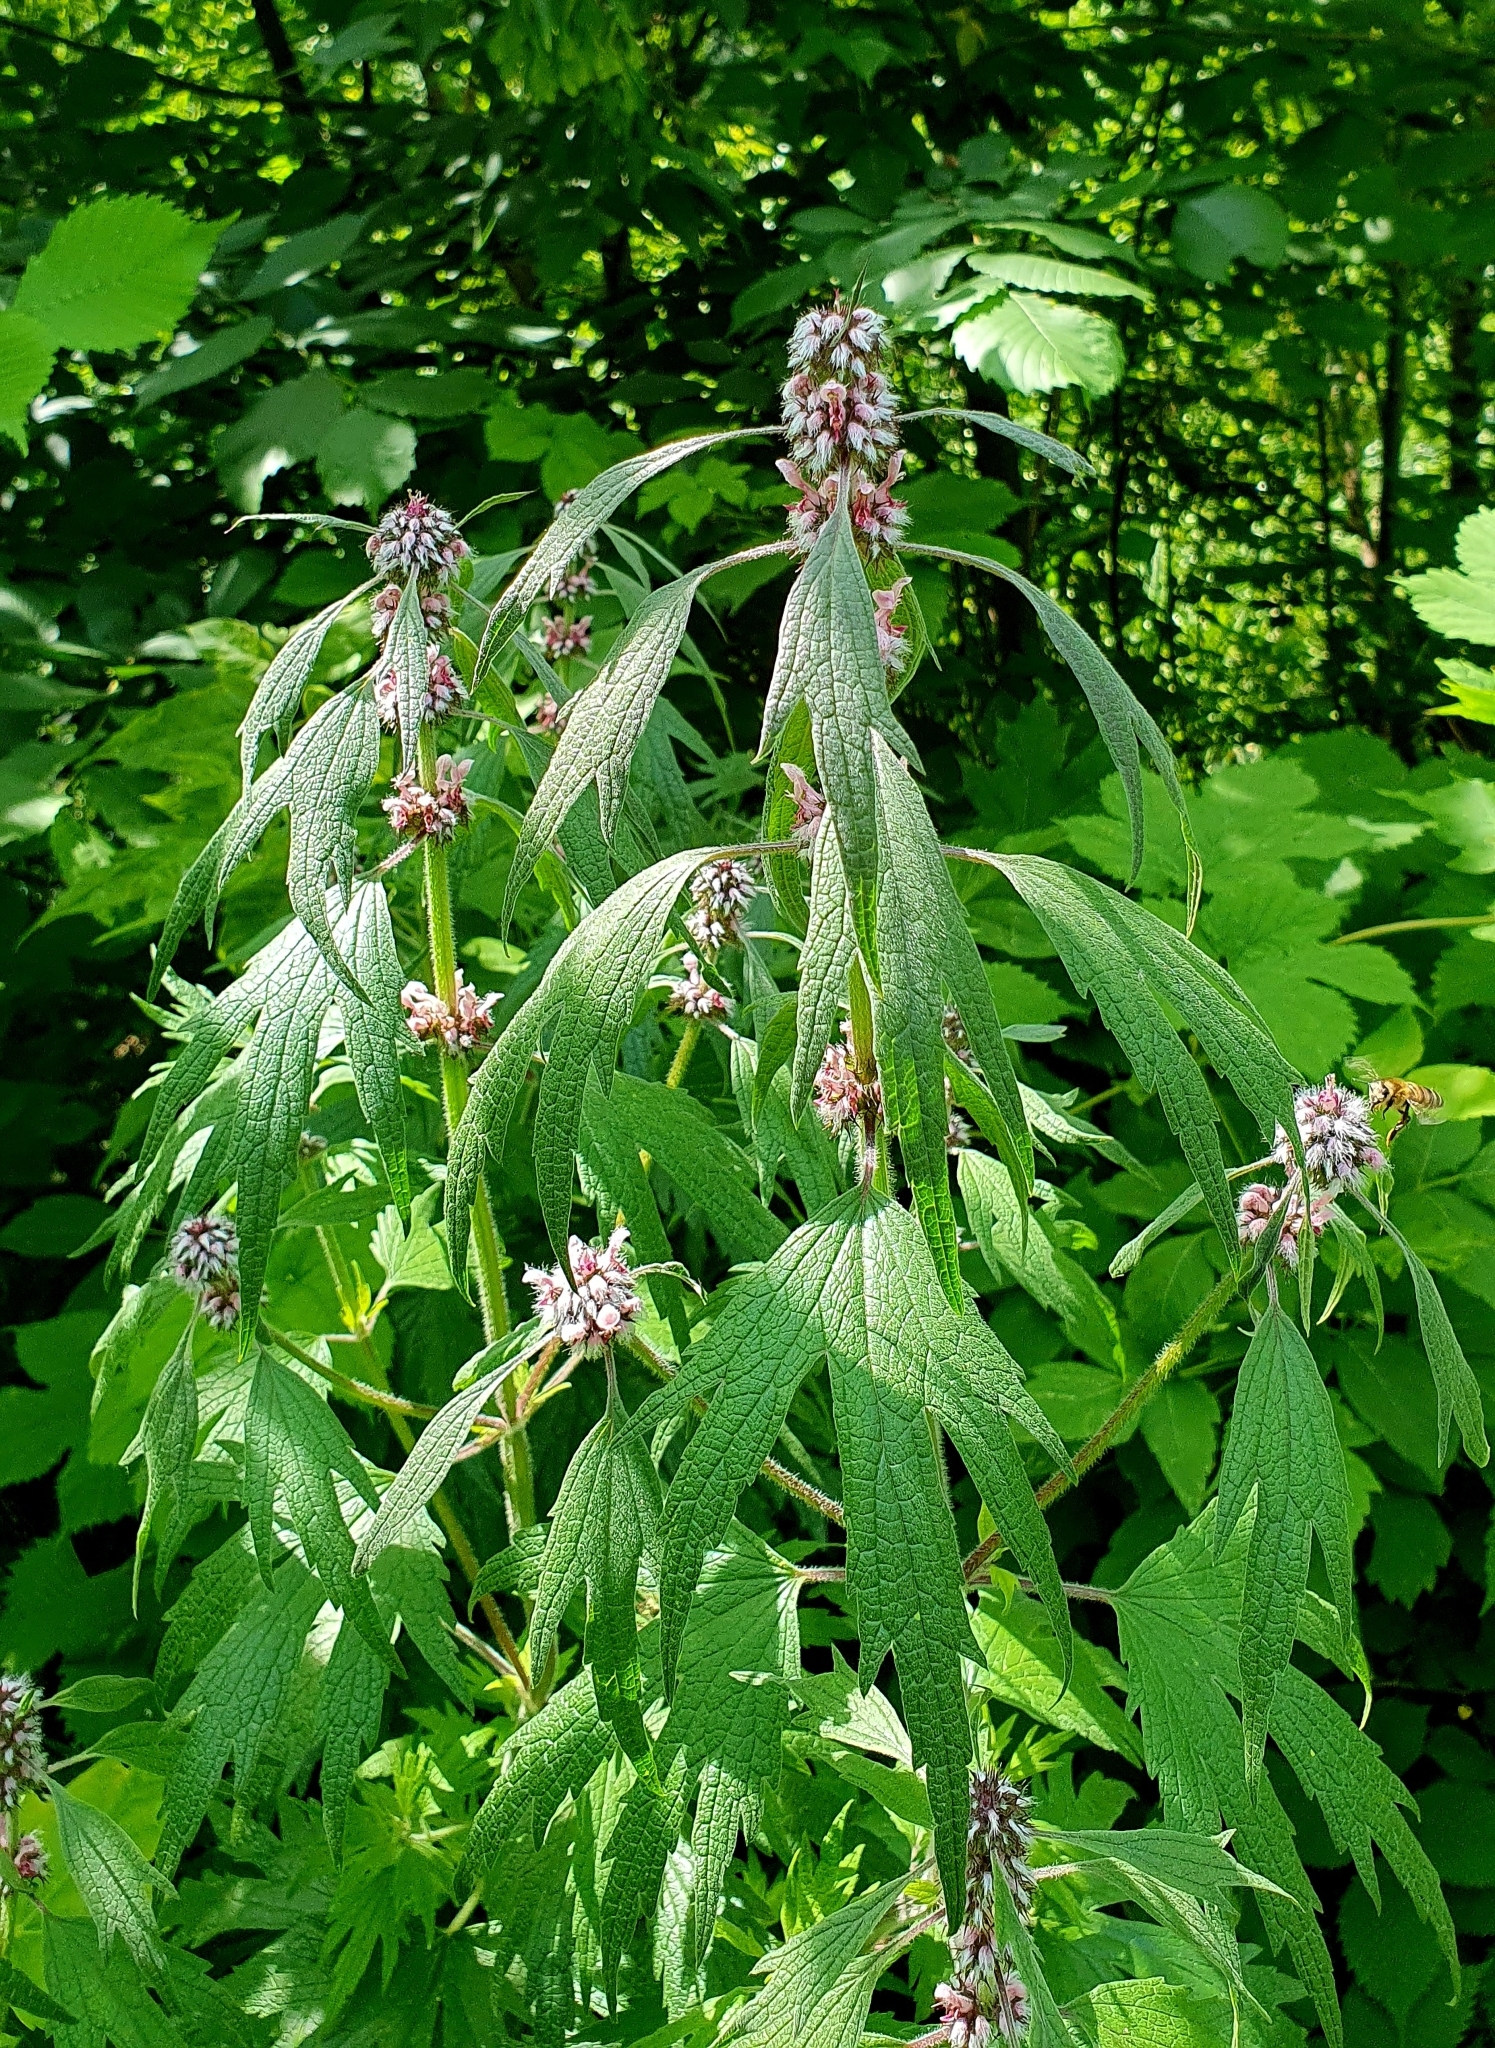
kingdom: Plantae
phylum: Tracheophyta
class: Magnoliopsida
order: Lamiales
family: Lamiaceae
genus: Leonurus
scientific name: Leonurus quinquelobatus
